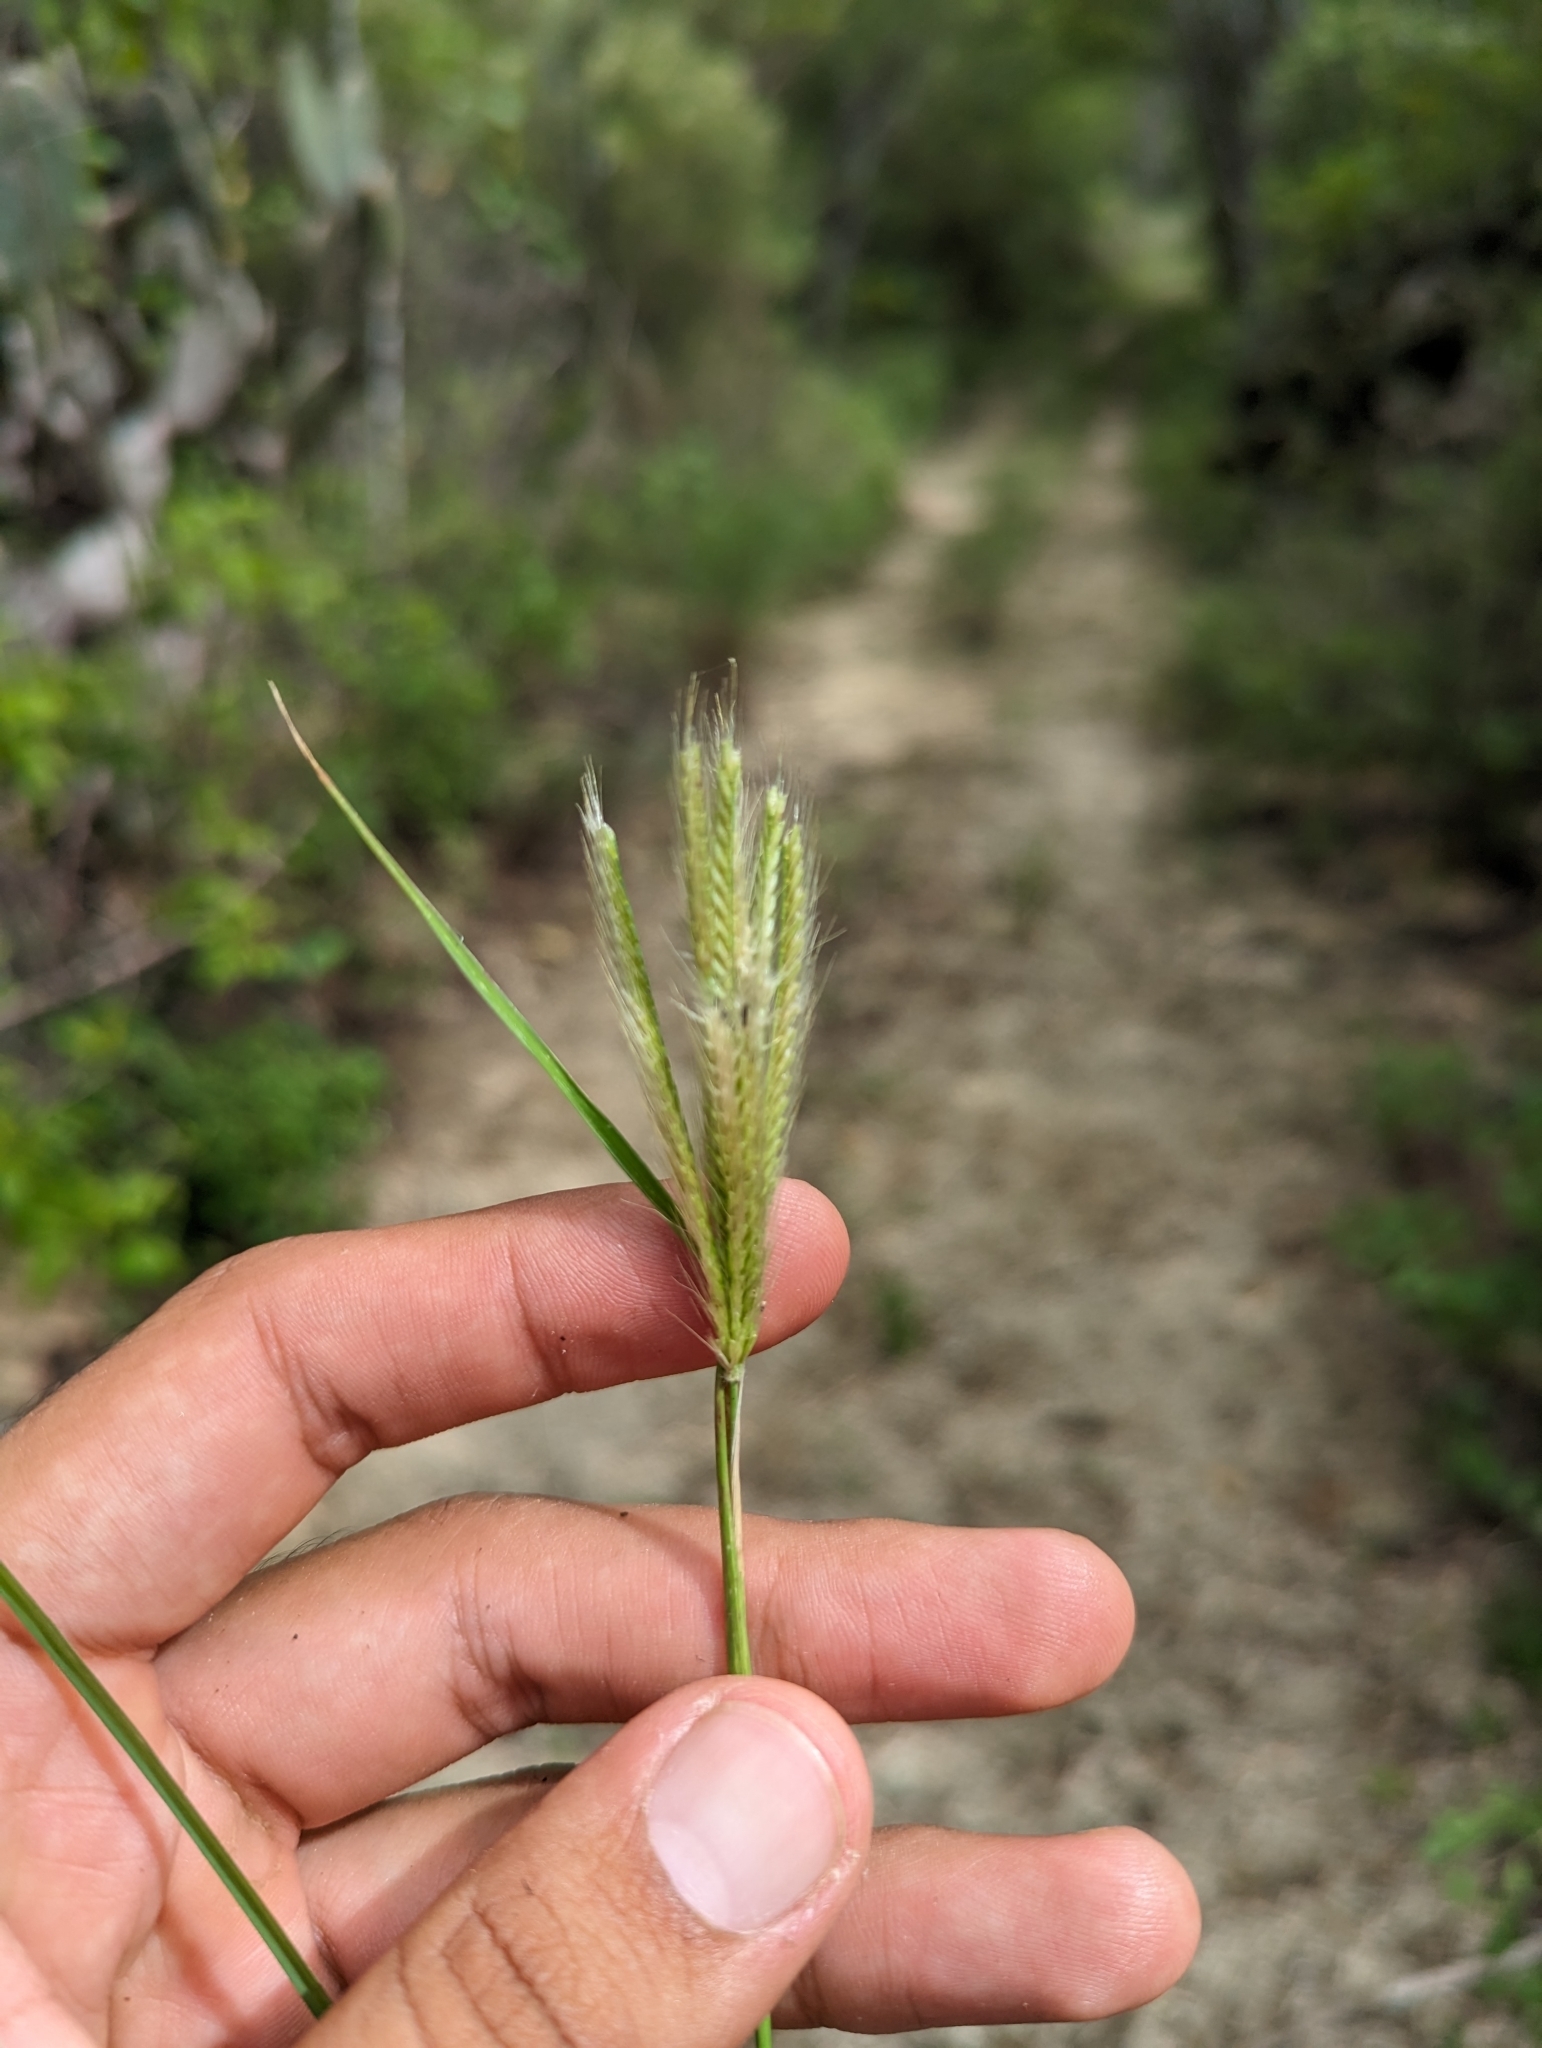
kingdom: Plantae
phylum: Tracheophyta
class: Liliopsida
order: Poales
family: Poaceae
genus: Chloris
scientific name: Chloris virgata
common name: Feathery rhodes-grass
